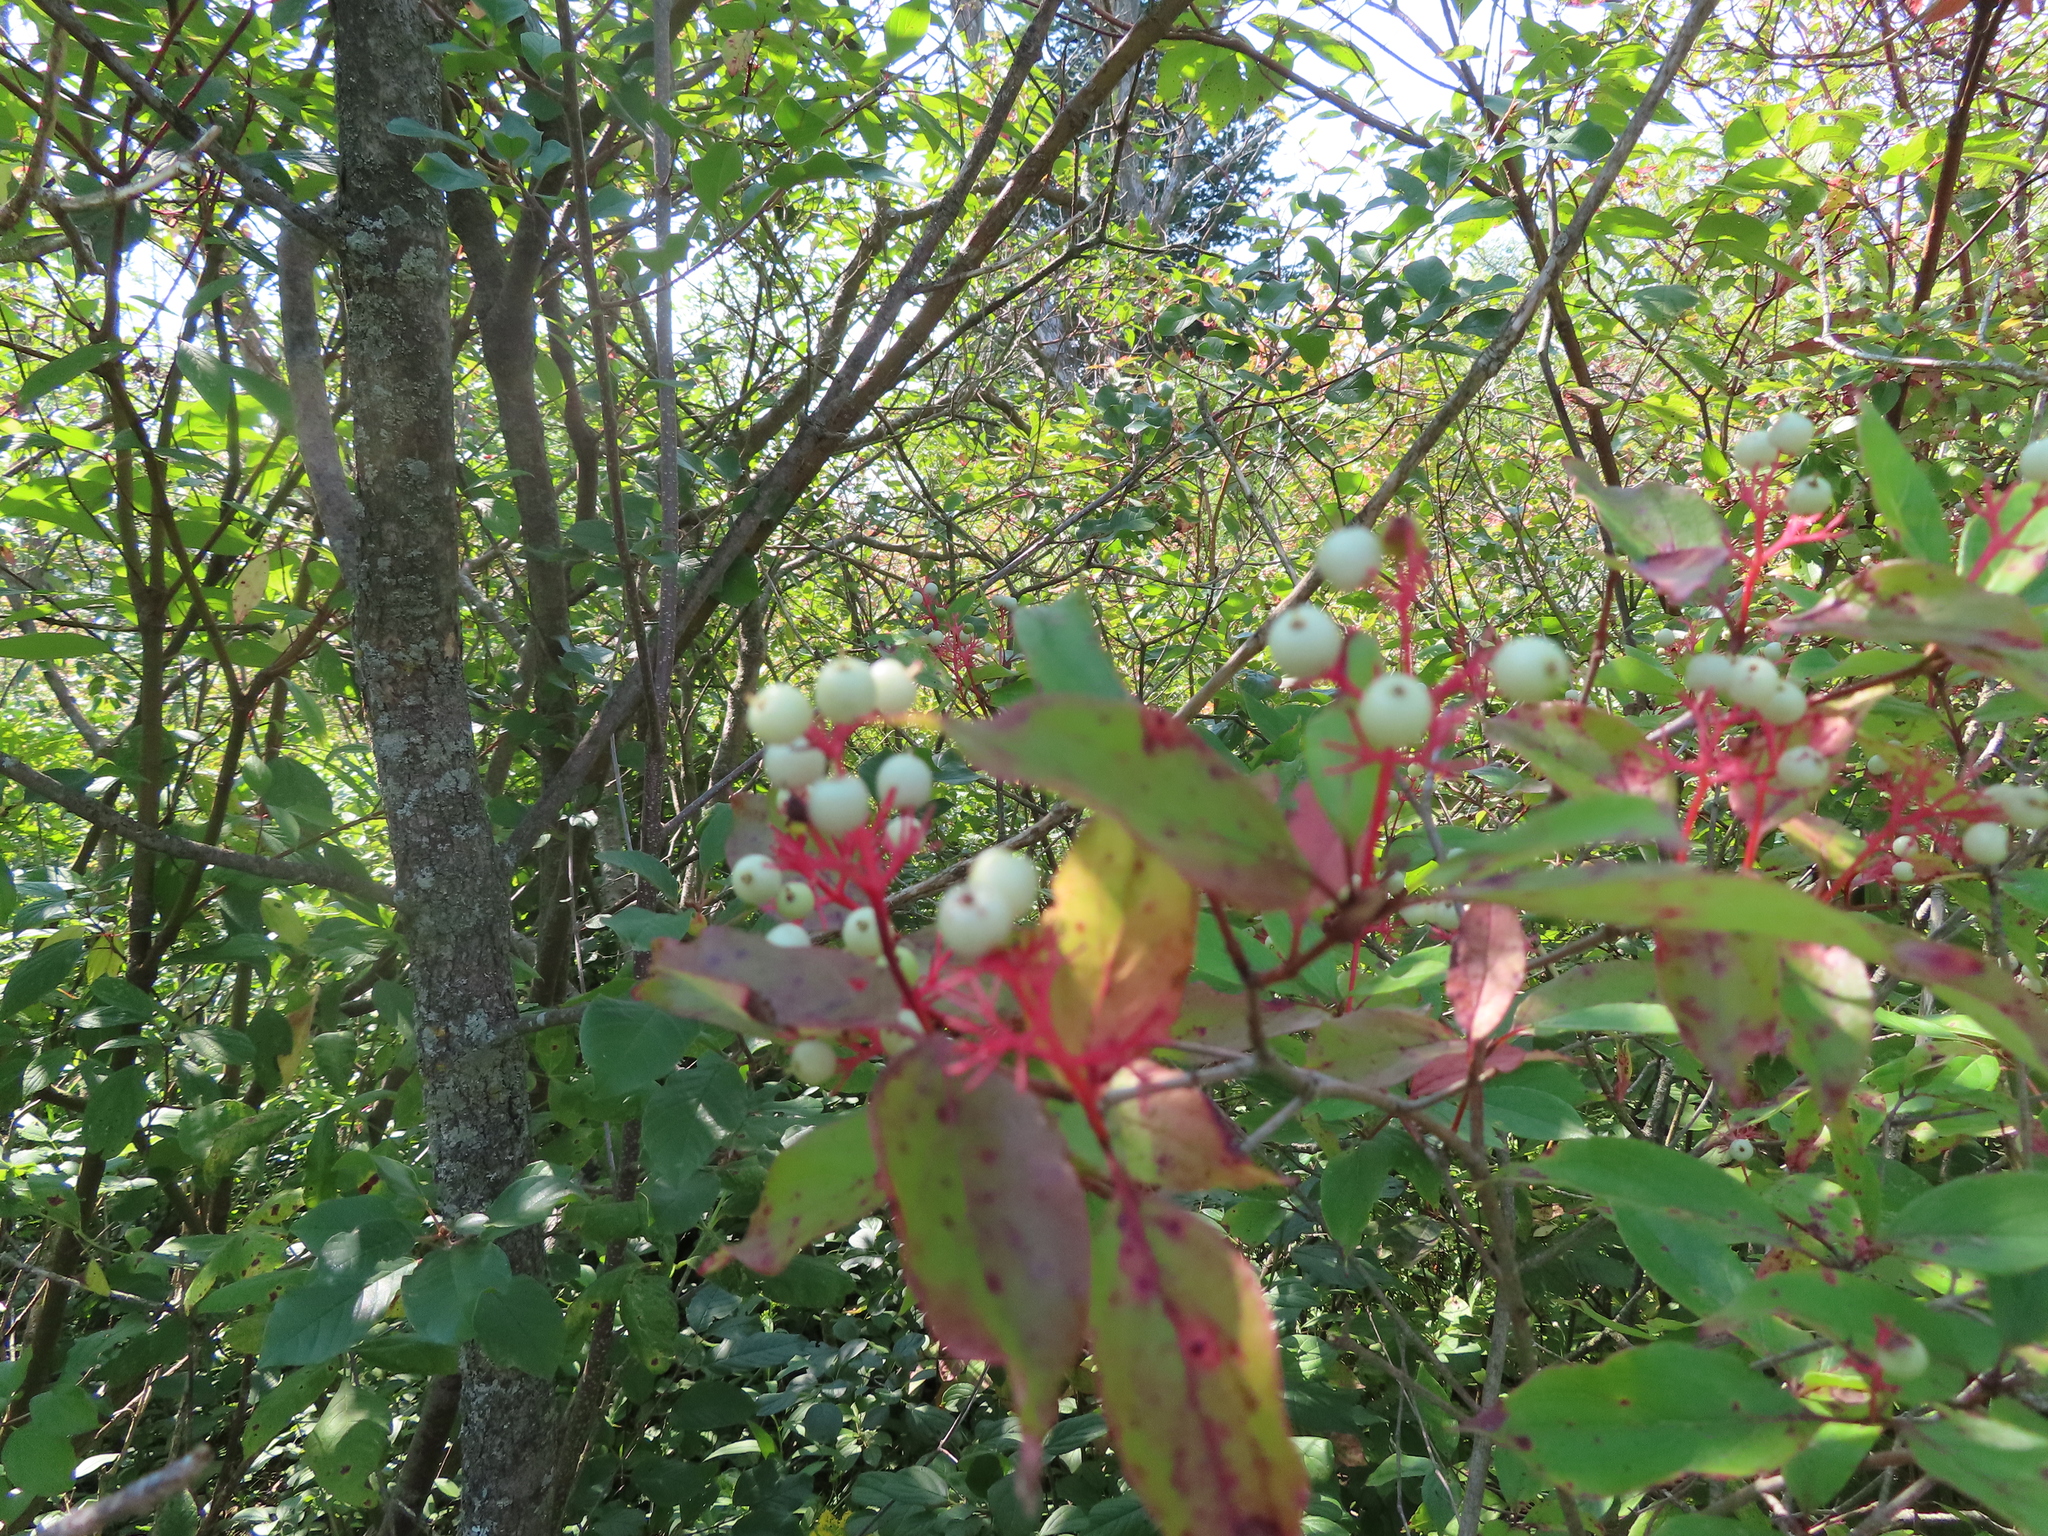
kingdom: Plantae
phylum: Tracheophyta
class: Magnoliopsida
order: Cornales
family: Cornaceae
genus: Cornus
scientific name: Cornus racemosa
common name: Panicled dogwood
